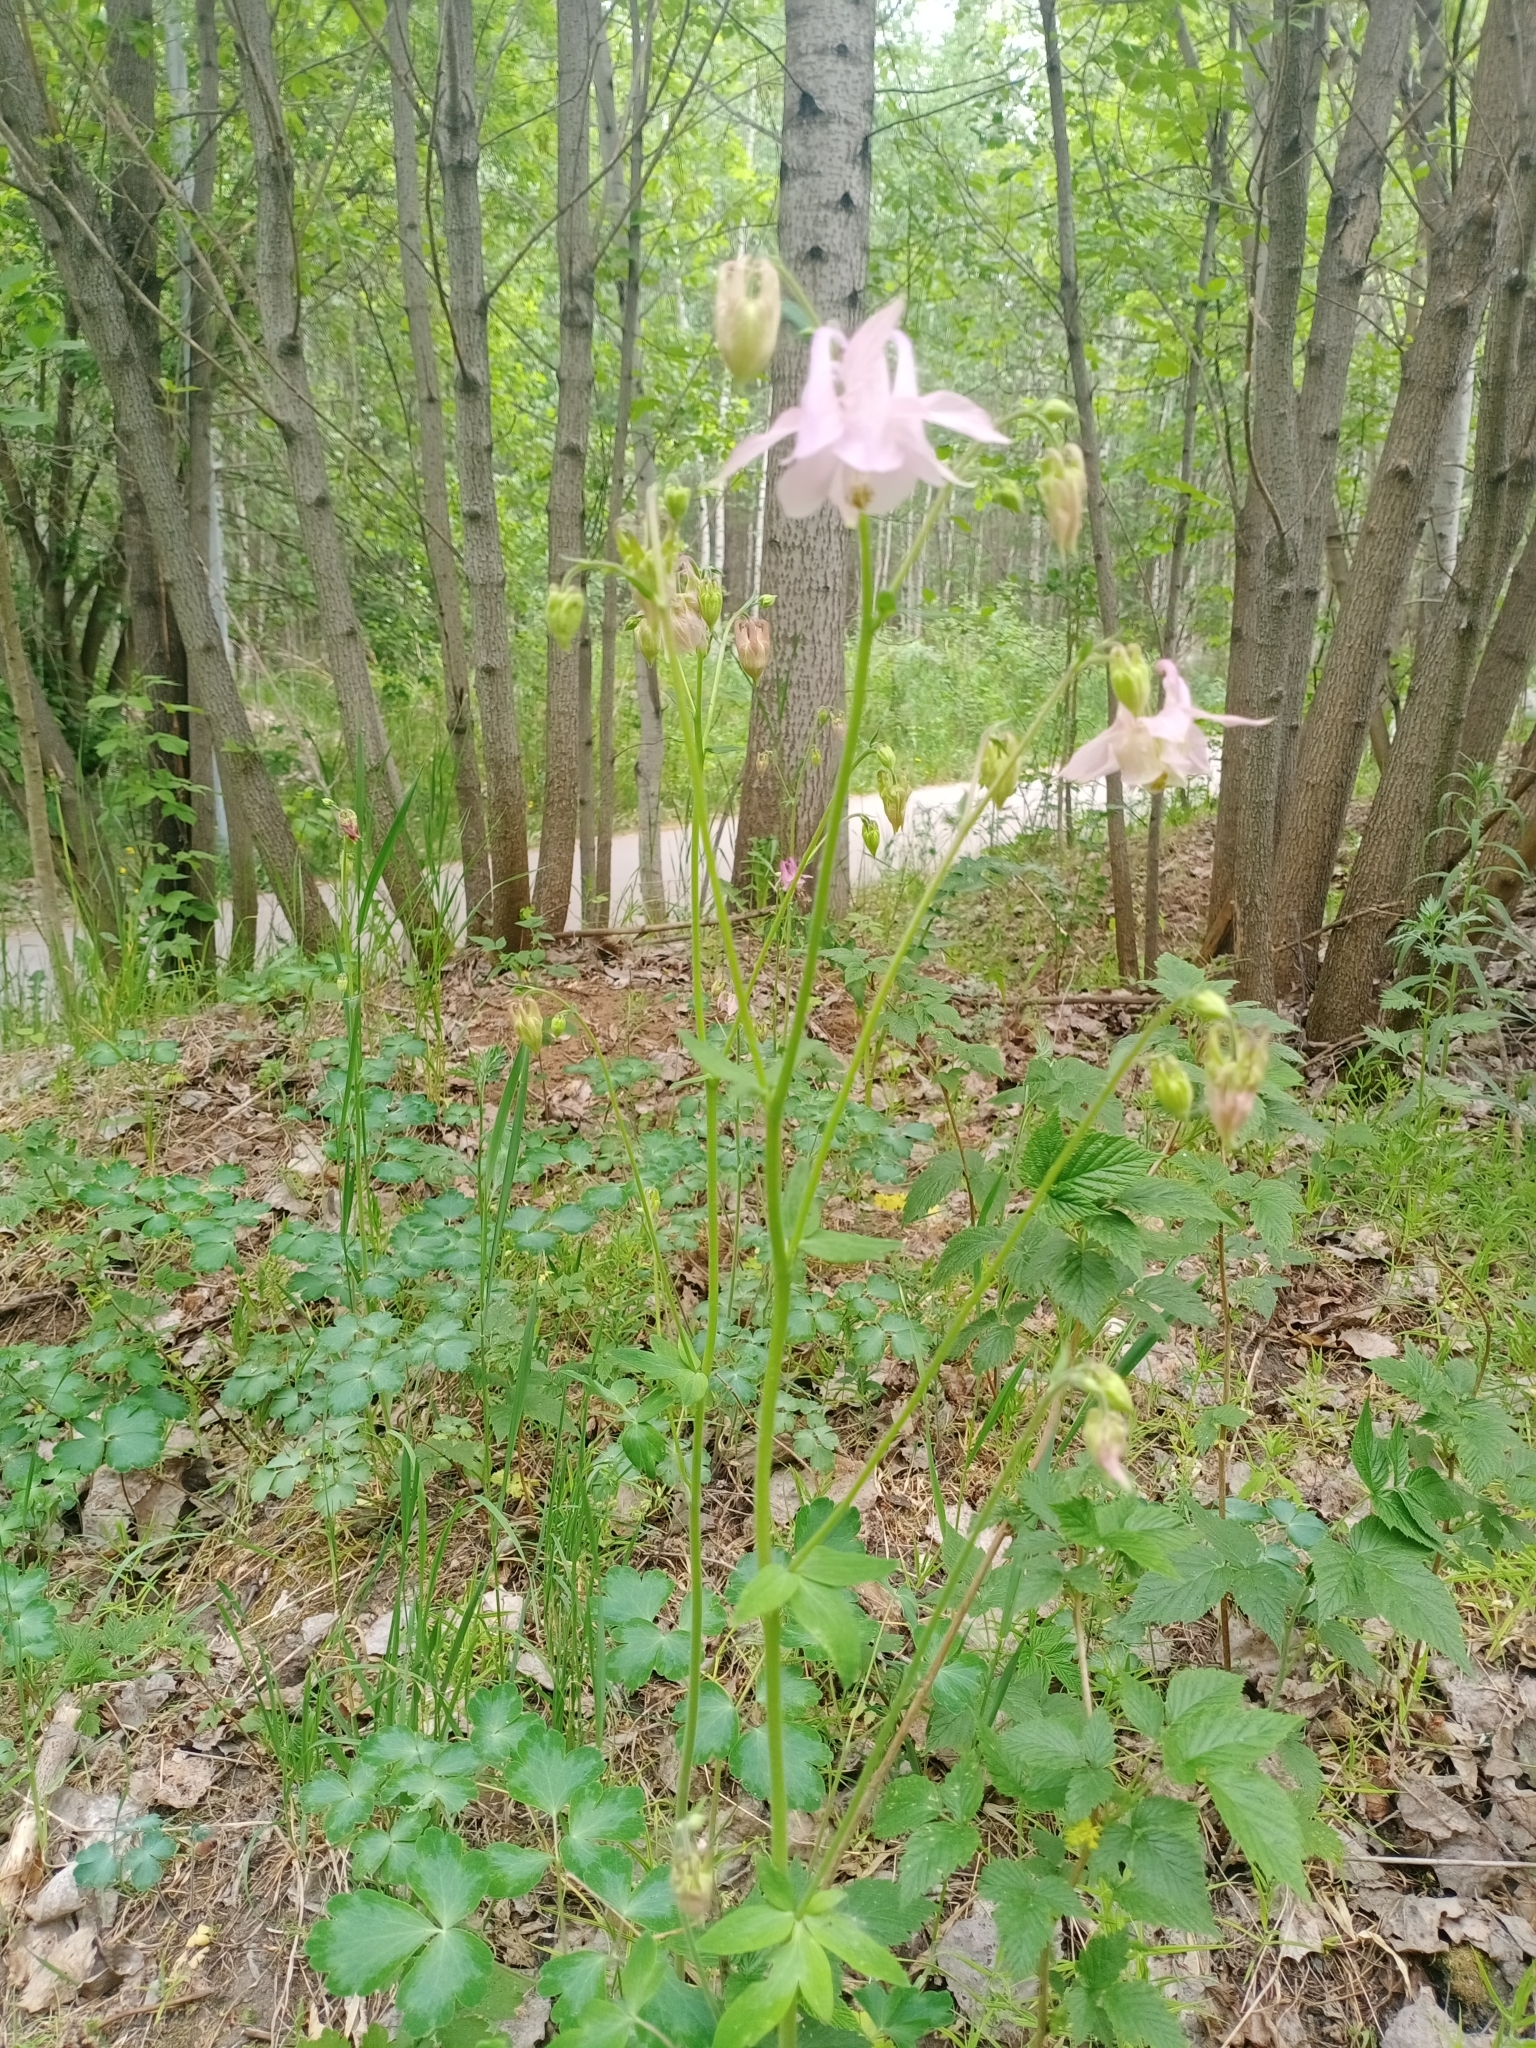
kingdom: Plantae
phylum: Tracheophyta
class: Magnoliopsida
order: Ranunculales
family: Ranunculaceae
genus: Aquilegia
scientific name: Aquilegia vulgaris
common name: Columbine
